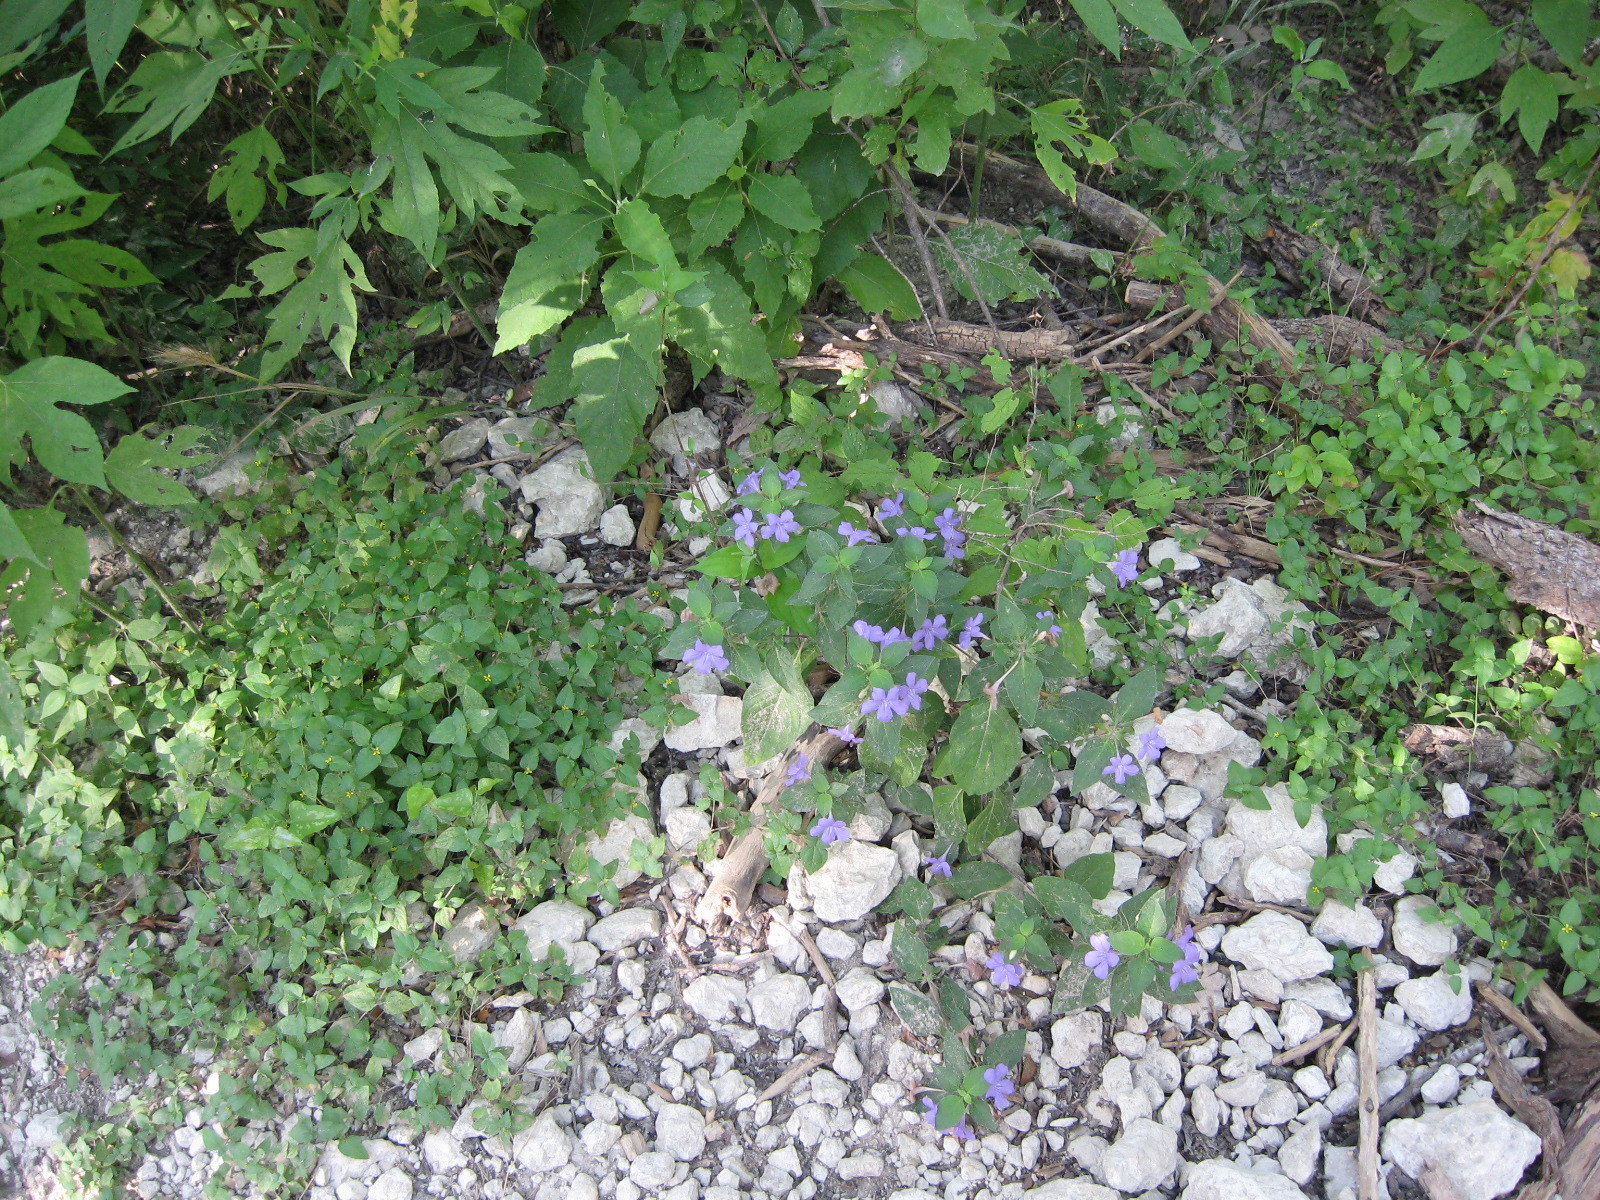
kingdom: Plantae
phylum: Tracheophyta
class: Magnoliopsida
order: Lamiales
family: Acanthaceae
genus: Ruellia
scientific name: Ruellia drummondiana
